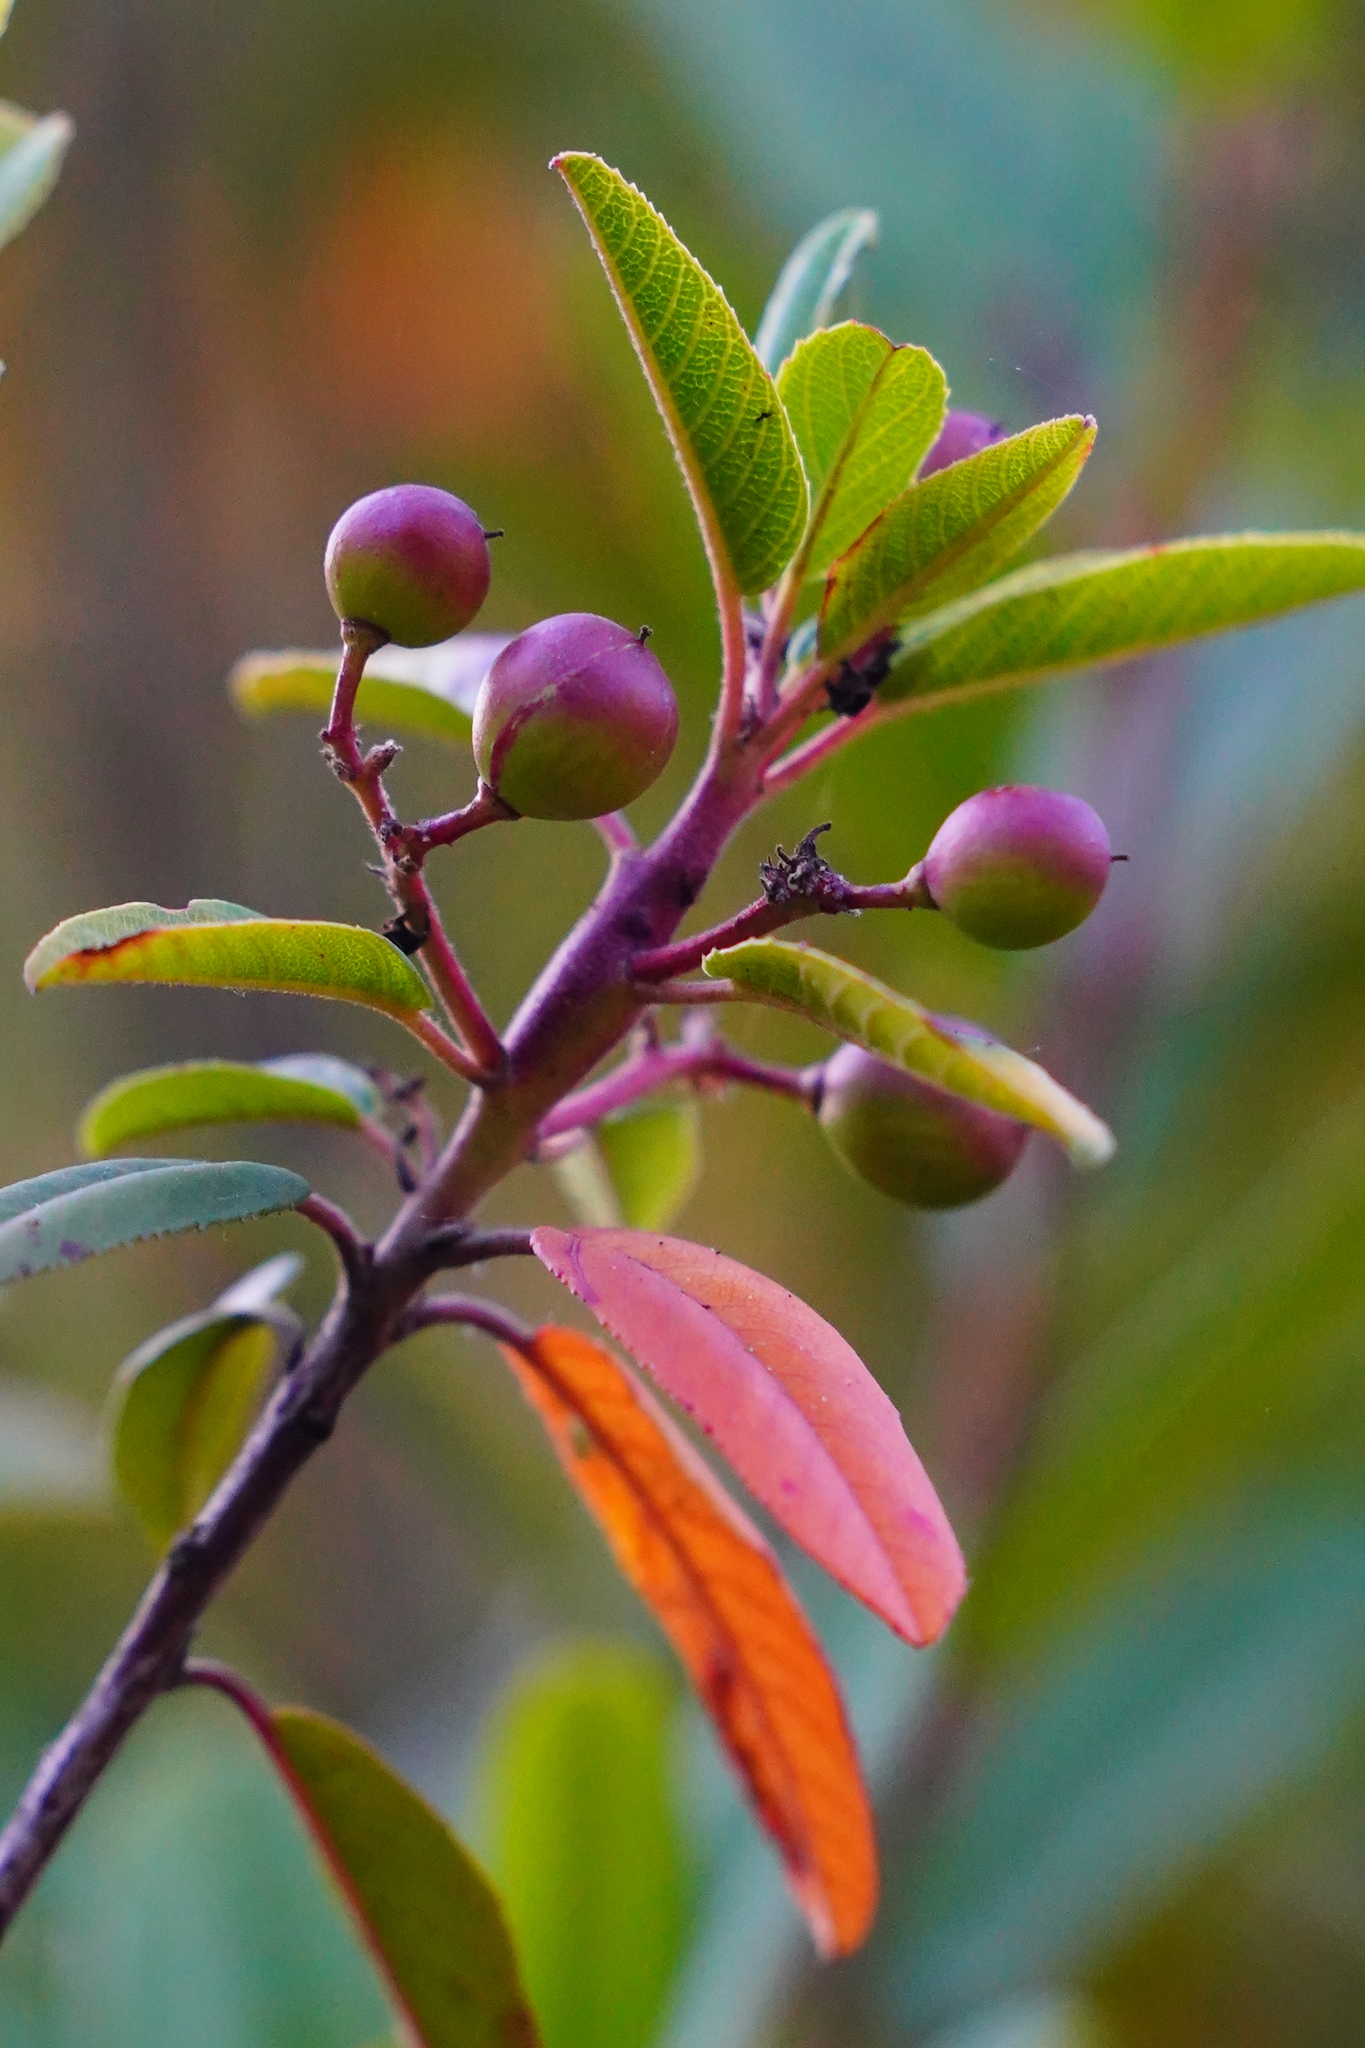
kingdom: Plantae
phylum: Tracheophyta
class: Magnoliopsida
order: Rosales
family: Rhamnaceae
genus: Frangula
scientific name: Frangula californica
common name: California buckthorn
